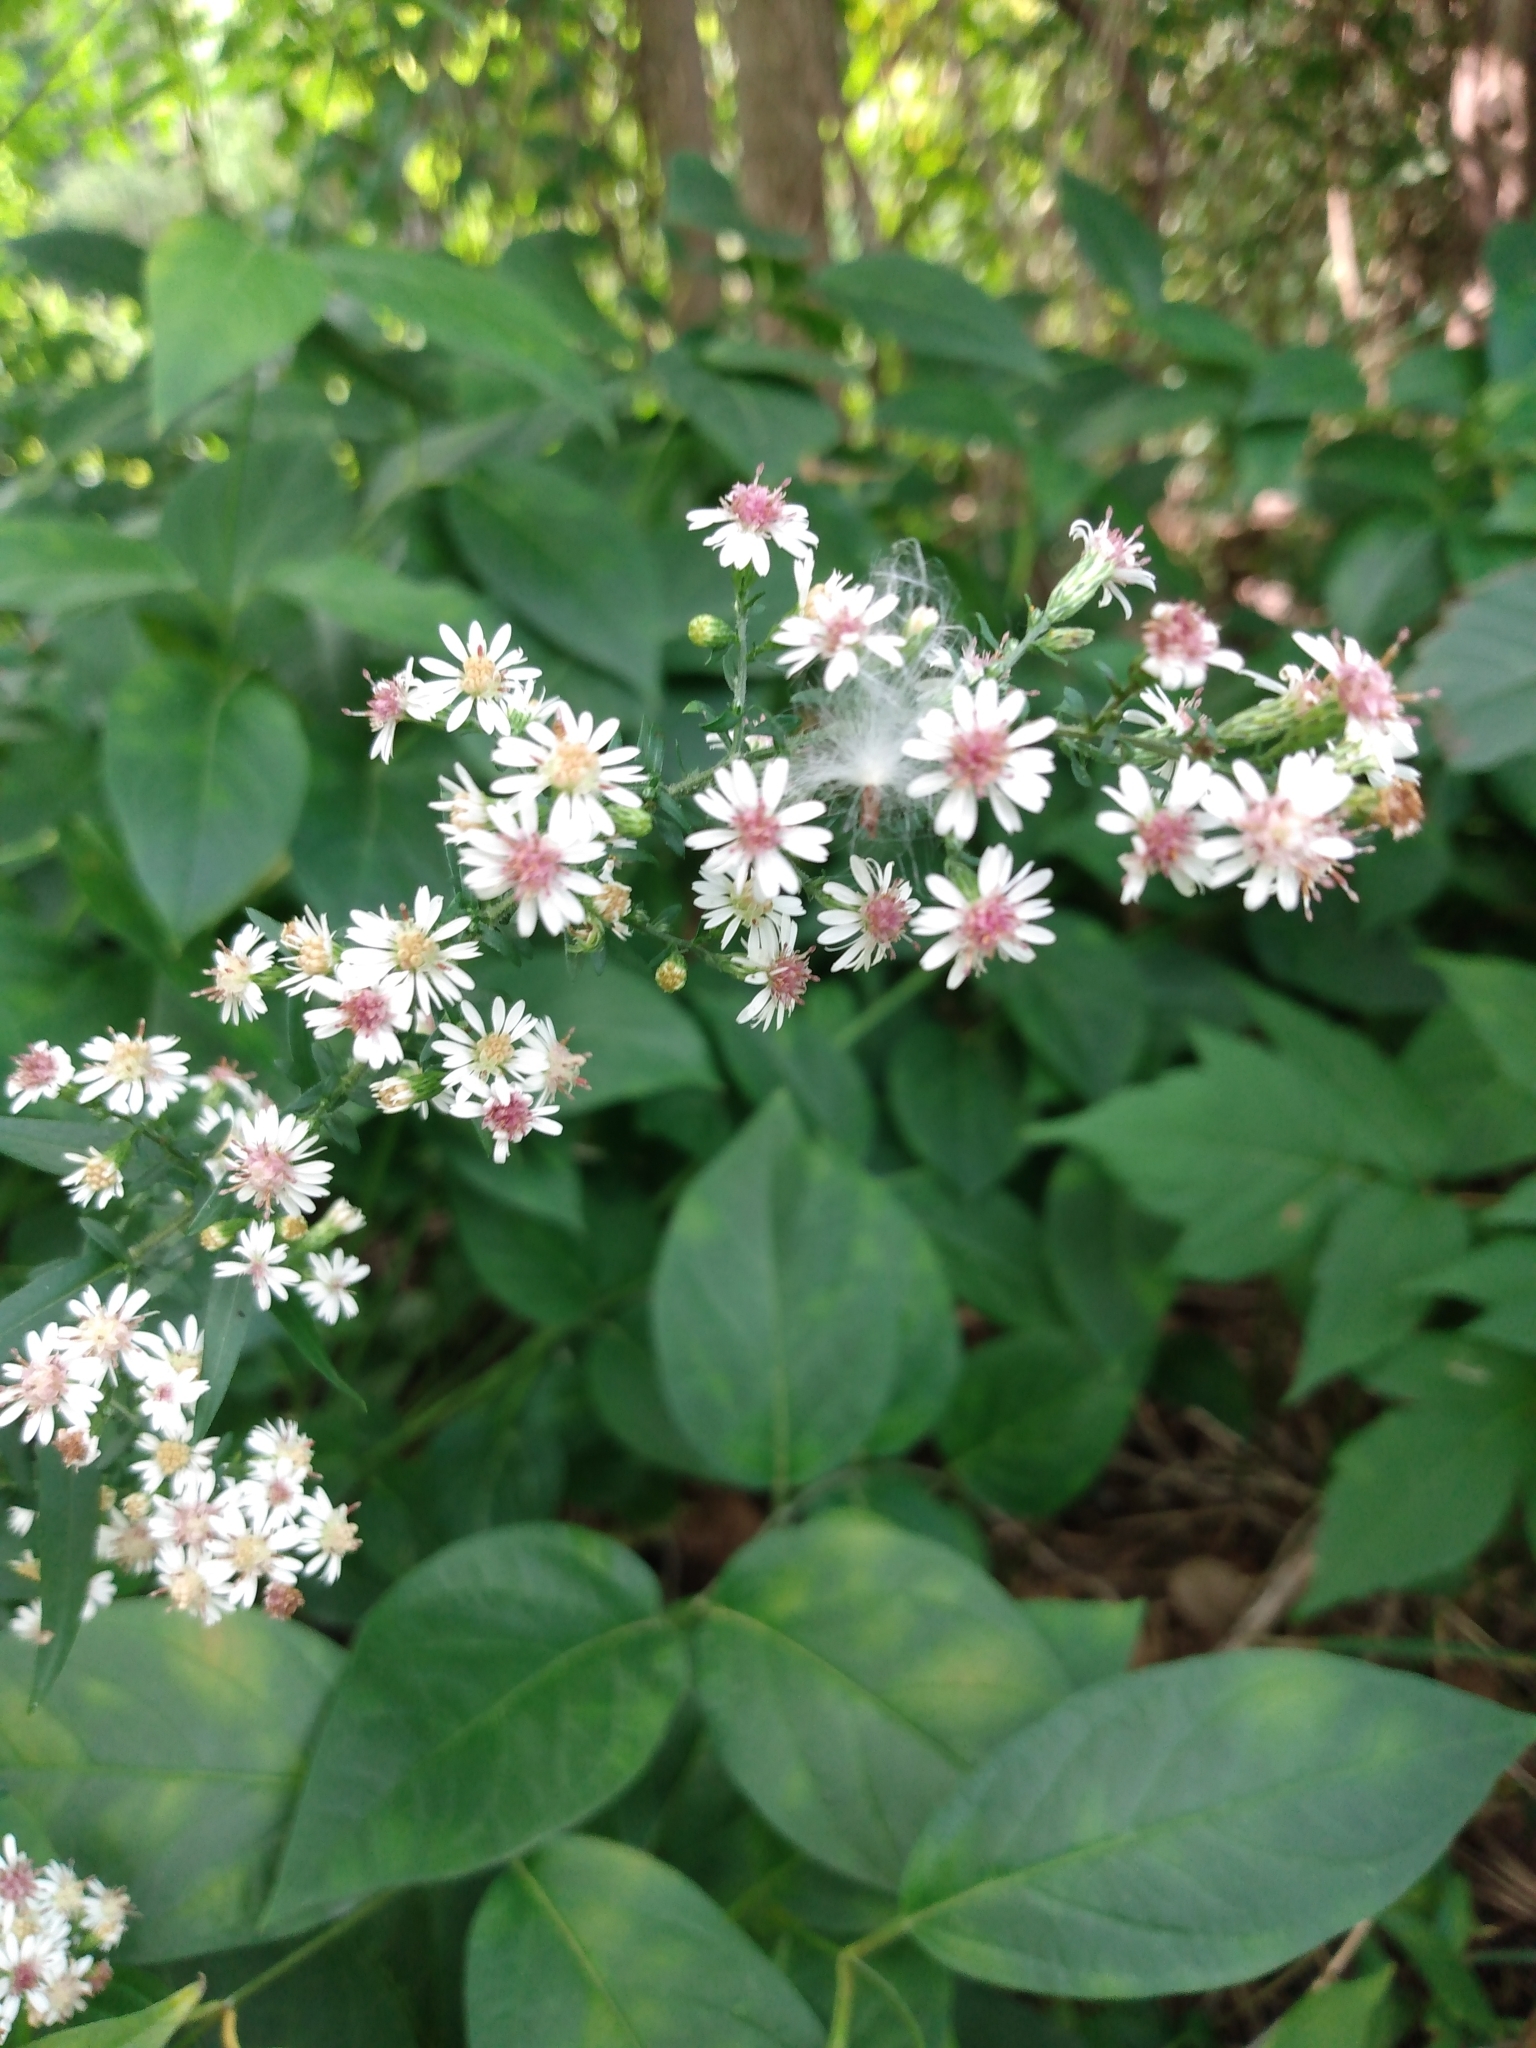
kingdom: Plantae
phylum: Tracheophyta
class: Magnoliopsida
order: Asterales
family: Asteraceae
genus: Symphyotrichum
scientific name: Symphyotrichum lateriflorum
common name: Calico aster
